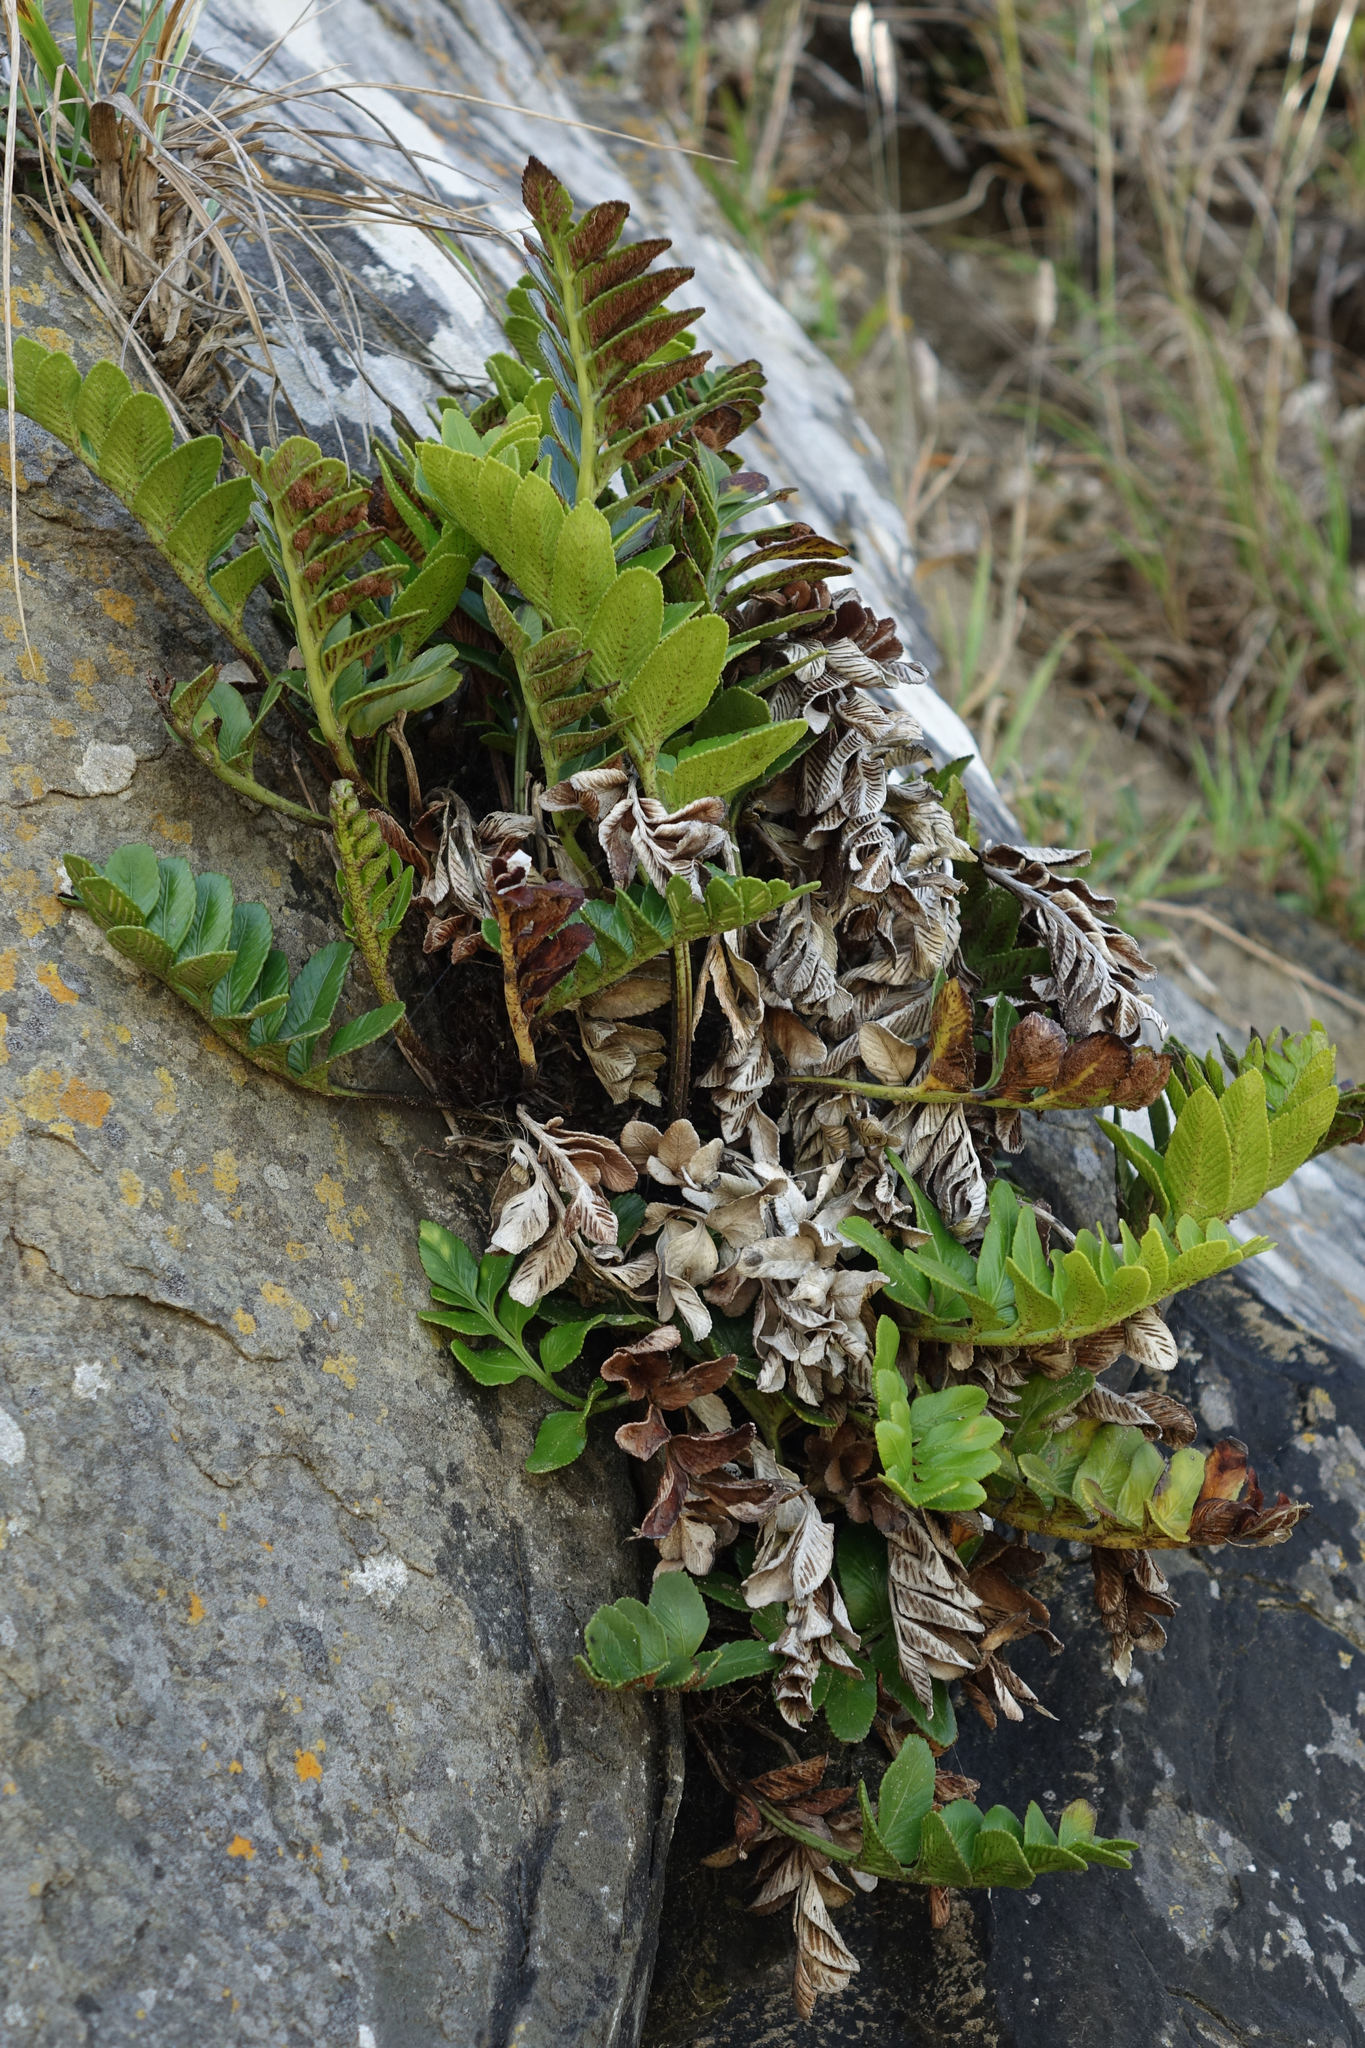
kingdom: Plantae
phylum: Tracheophyta
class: Polypodiopsida
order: Polypodiales
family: Aspleniaceae
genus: Asplenium
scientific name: Asplenium obtusatum
